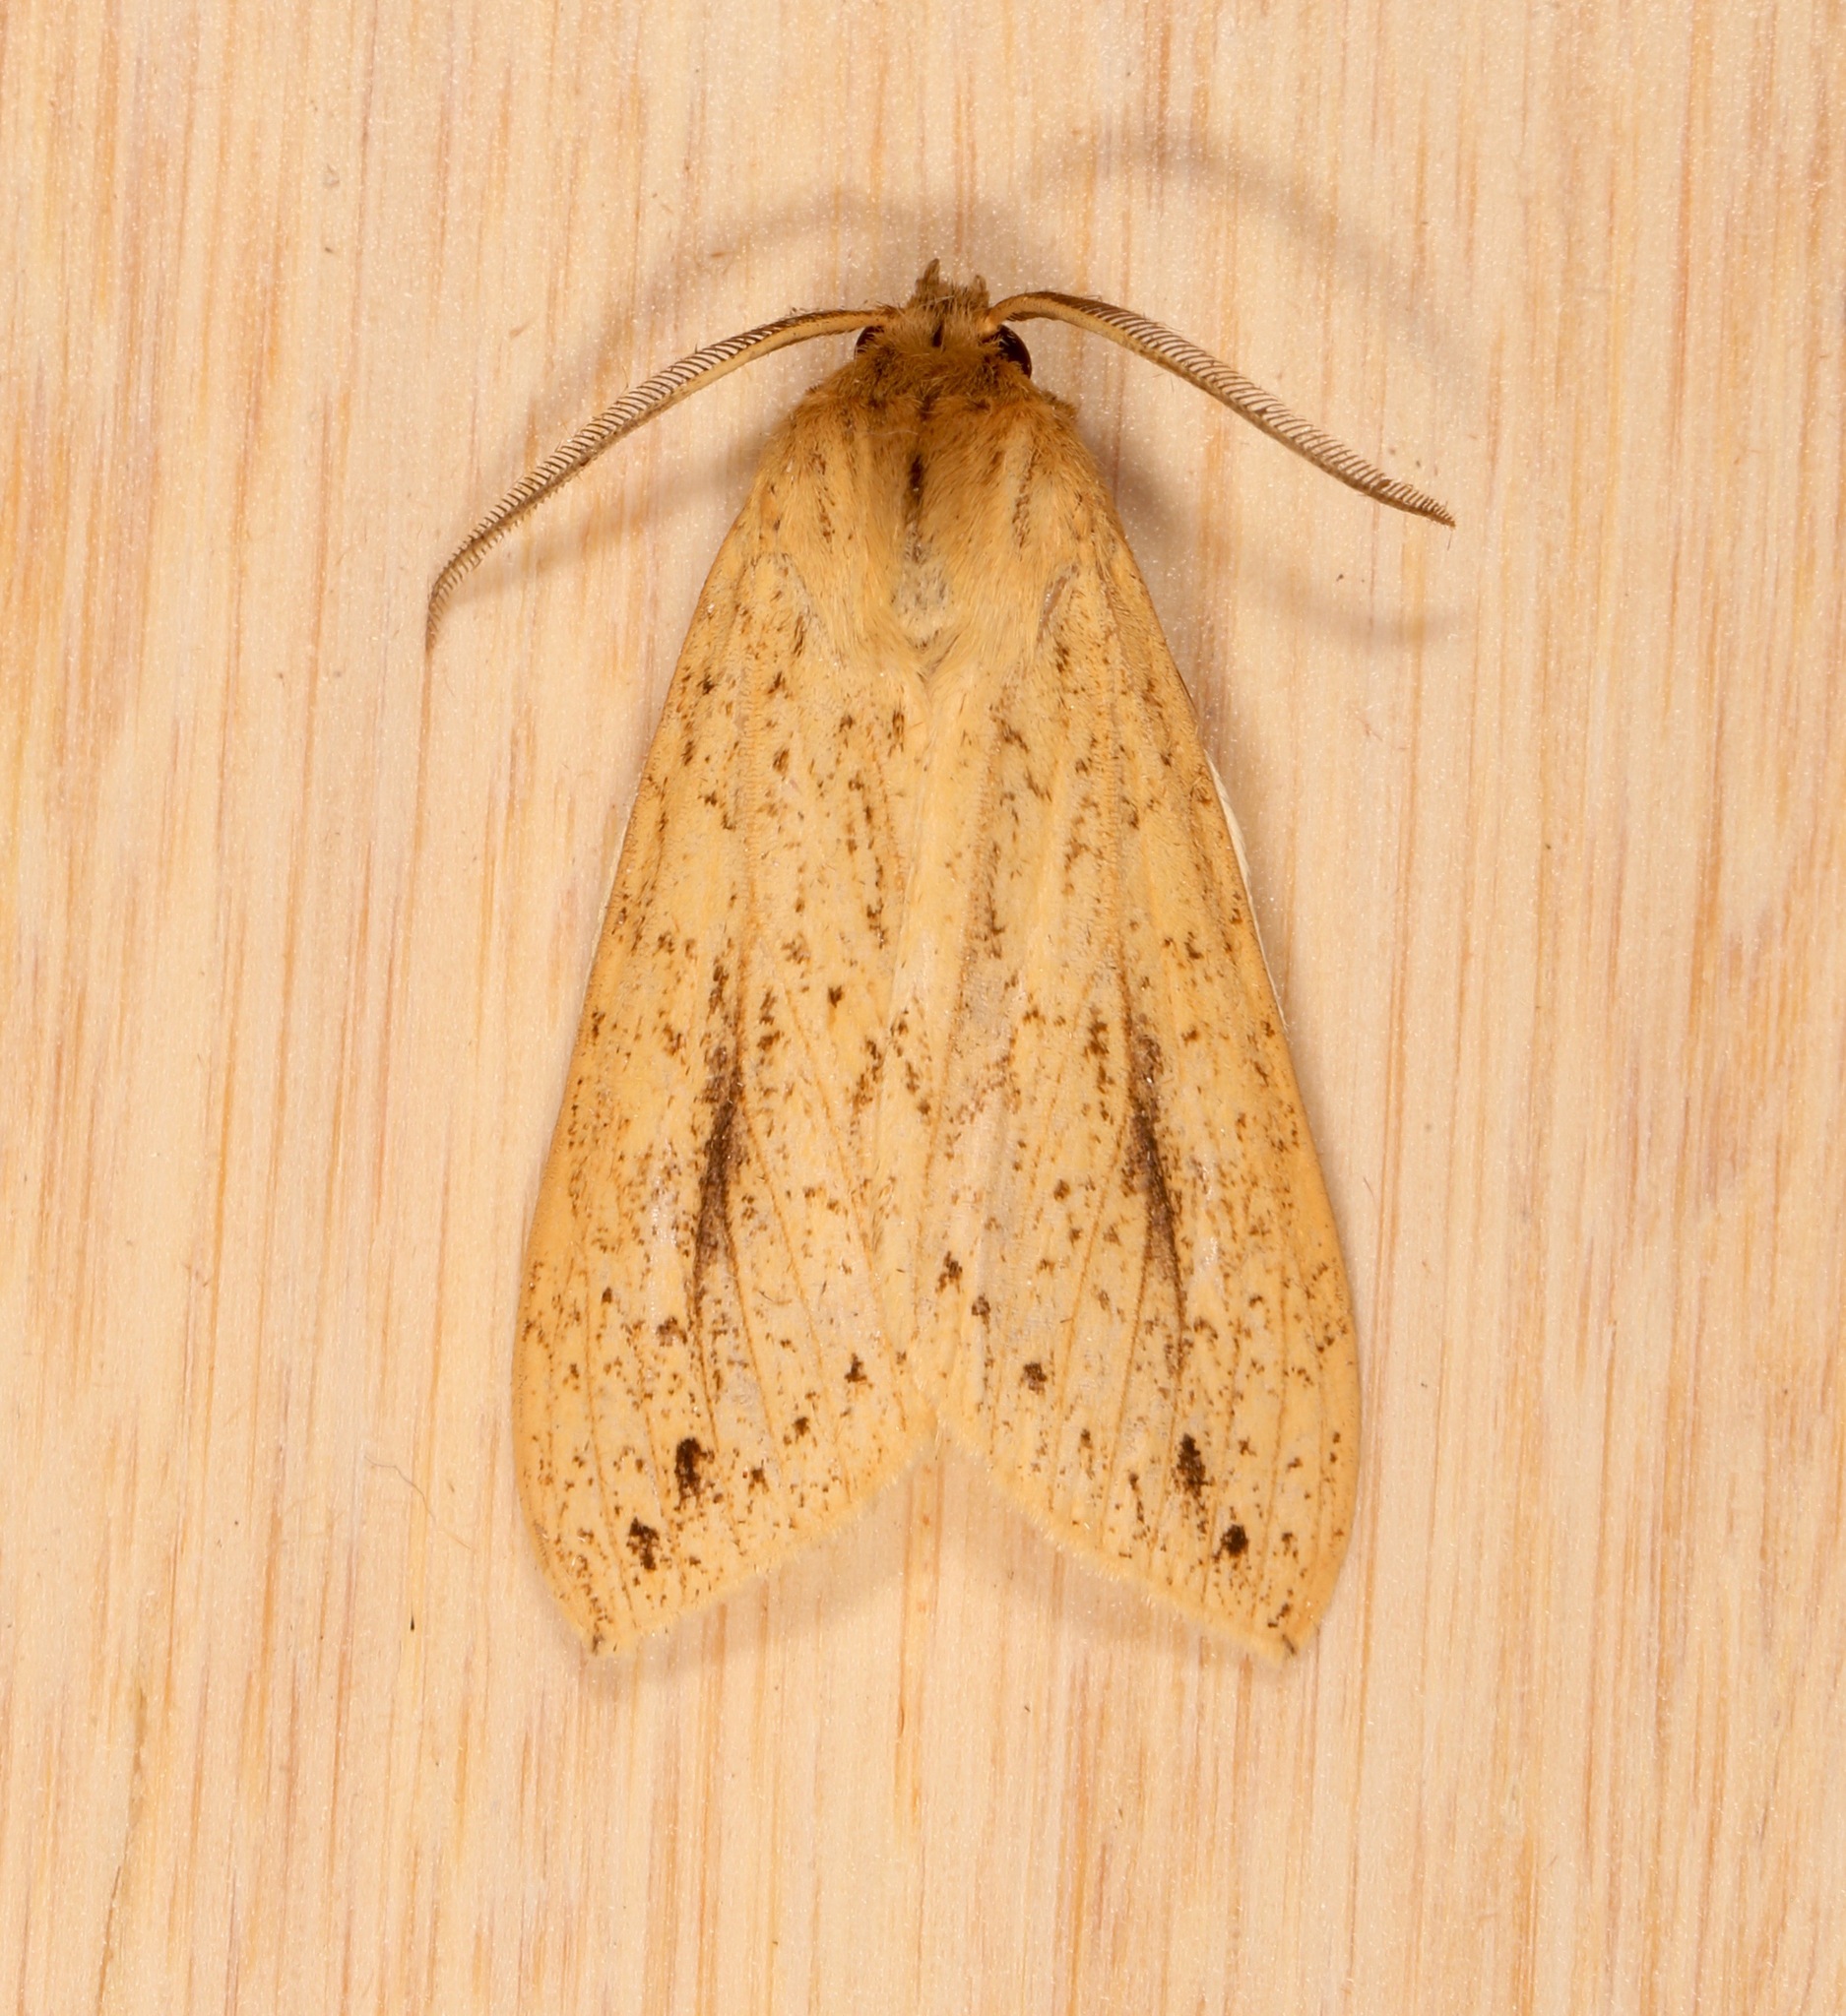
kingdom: Animalia
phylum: Arthropoda
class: Insecta
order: Lepidoptera
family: Erebidae
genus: Leucanopsis
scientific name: Leucanopsis longa
